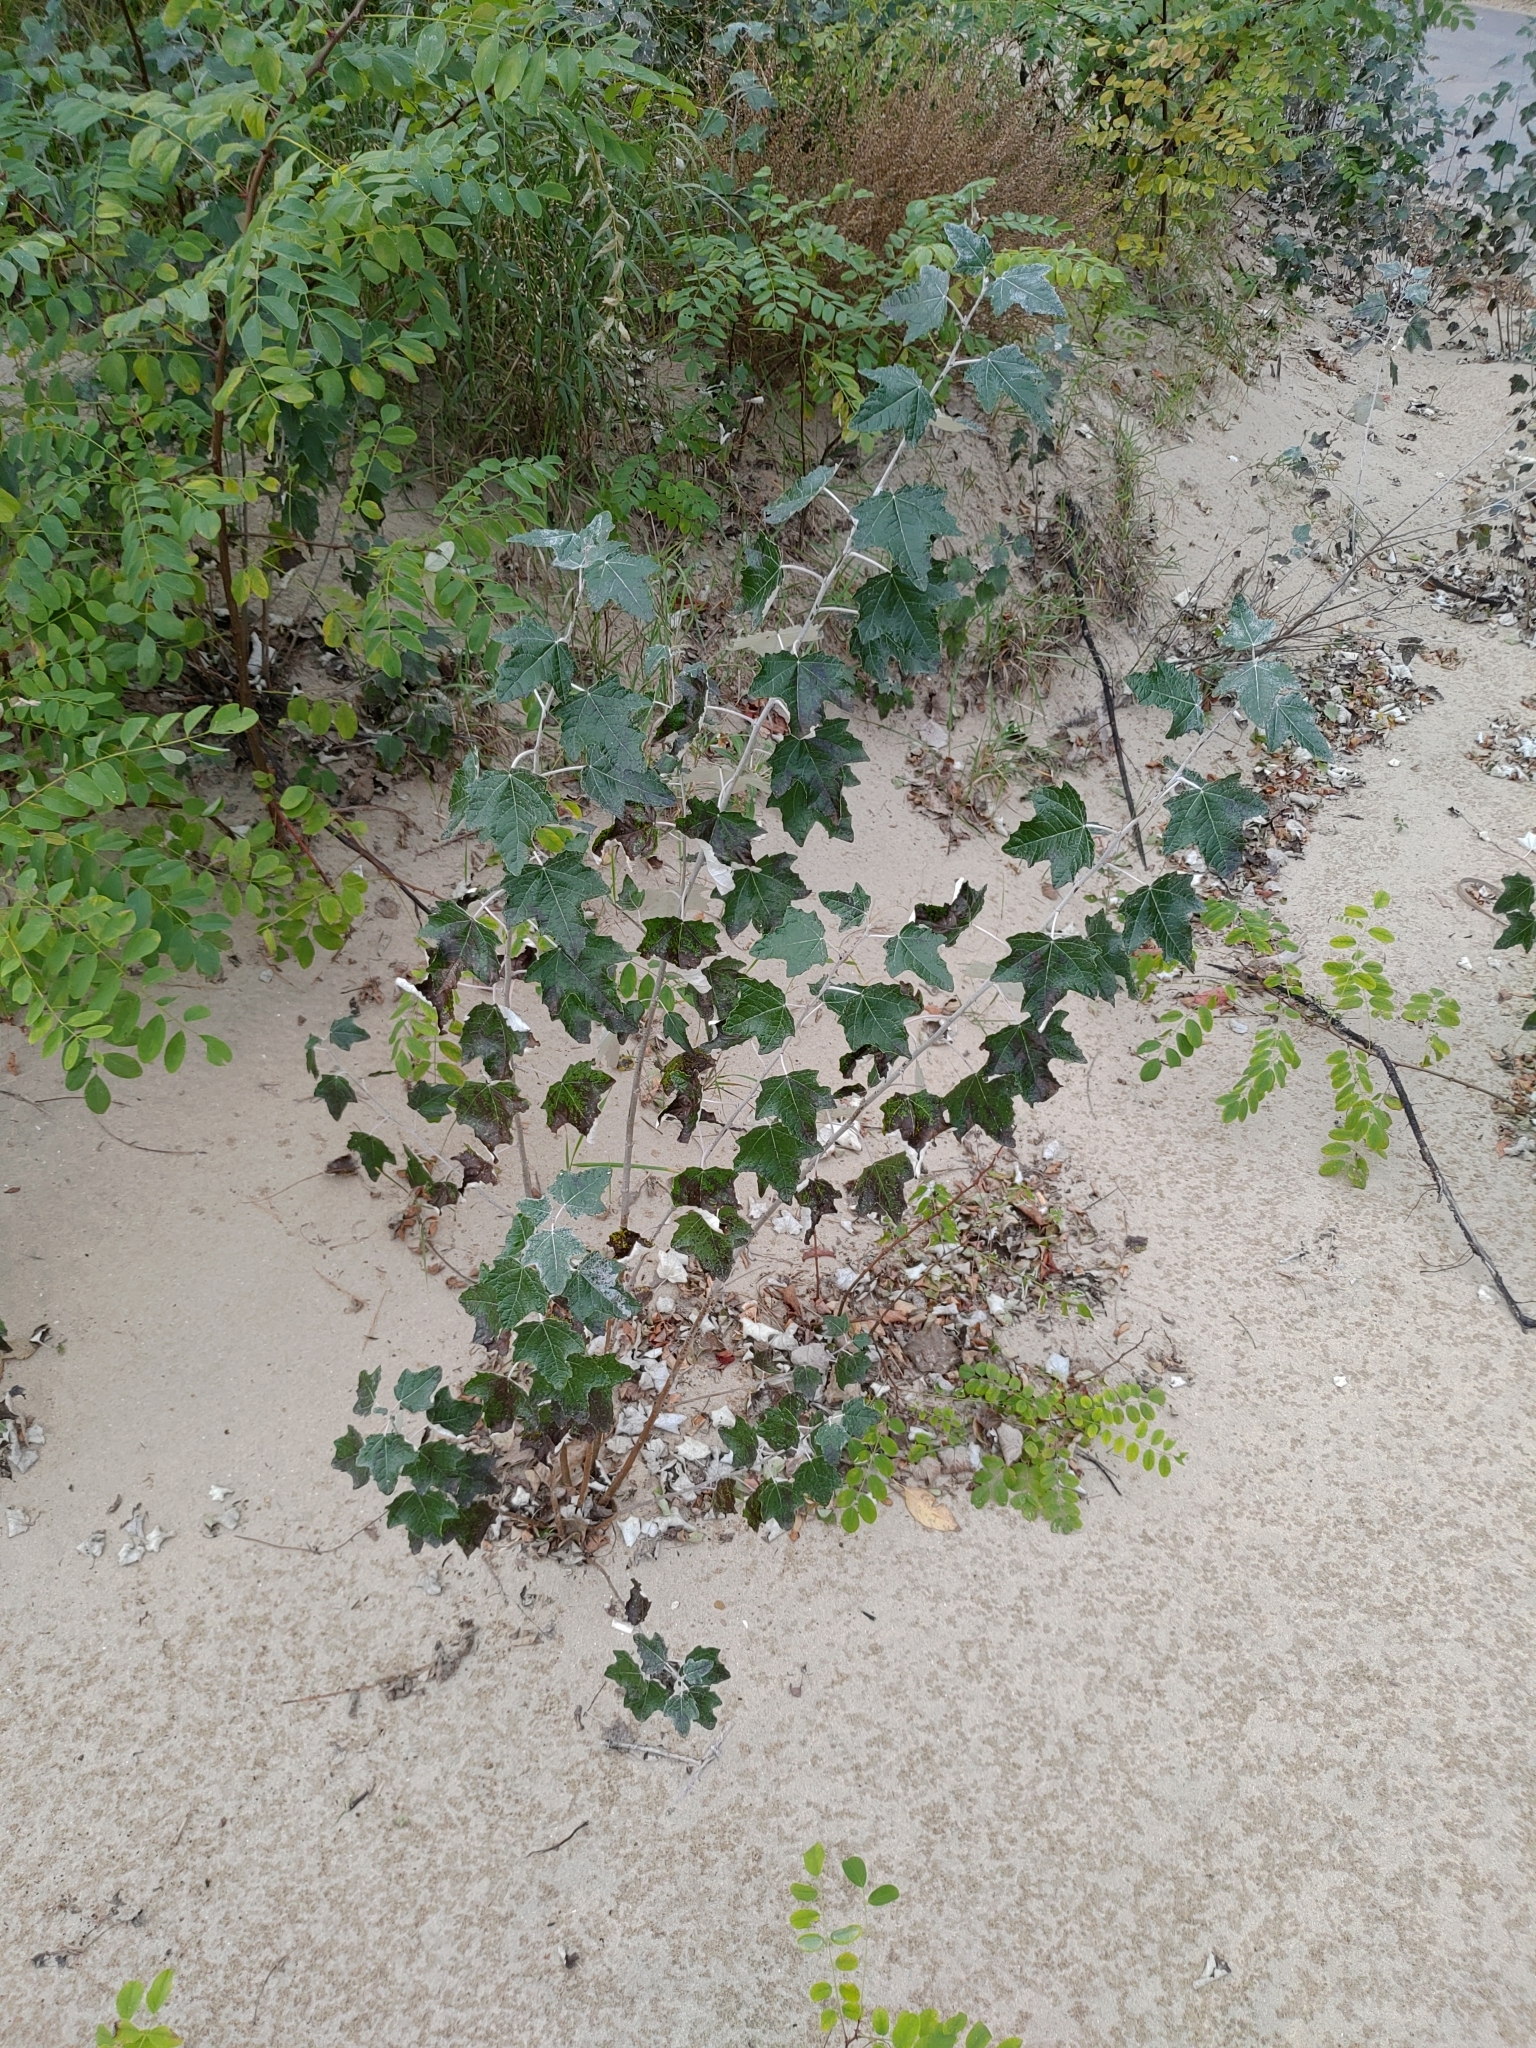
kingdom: Plantae
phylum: Tracheophyta
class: Magnoliopsida
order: Malpighiales
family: Salicaceae
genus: Populus
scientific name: Populus alba
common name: White poplar
